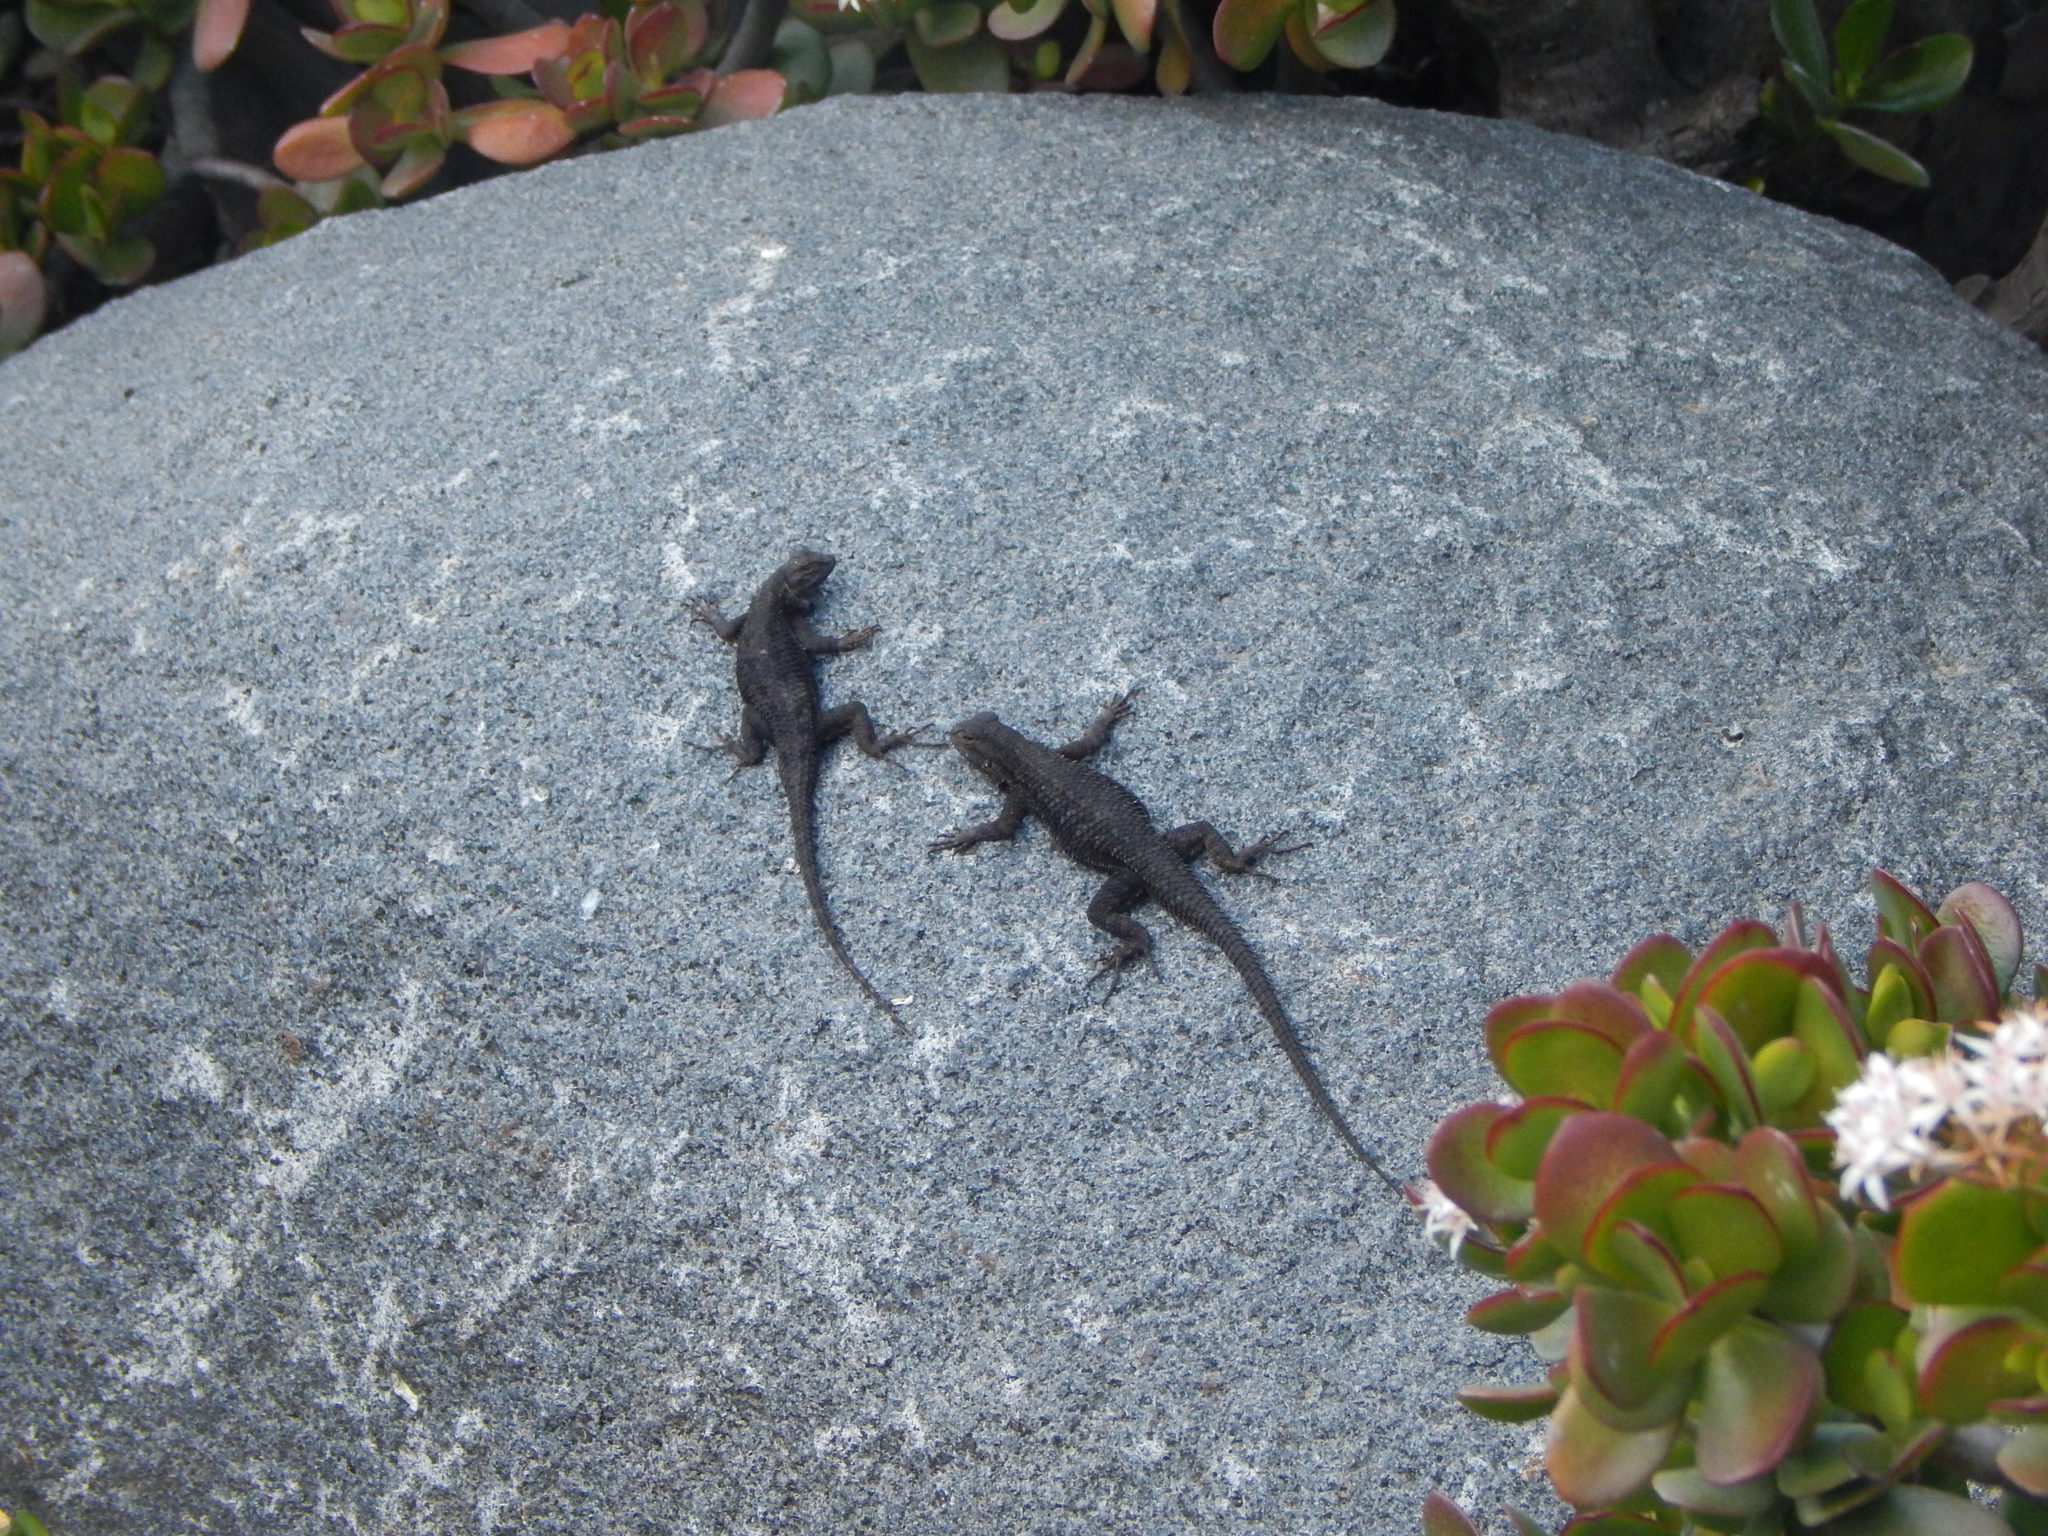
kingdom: Animalia
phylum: Chordata
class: Squamata
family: Phrynosomatidae
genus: Sceloporus
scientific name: Sceloporus occidentalis
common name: Western fence lizard
